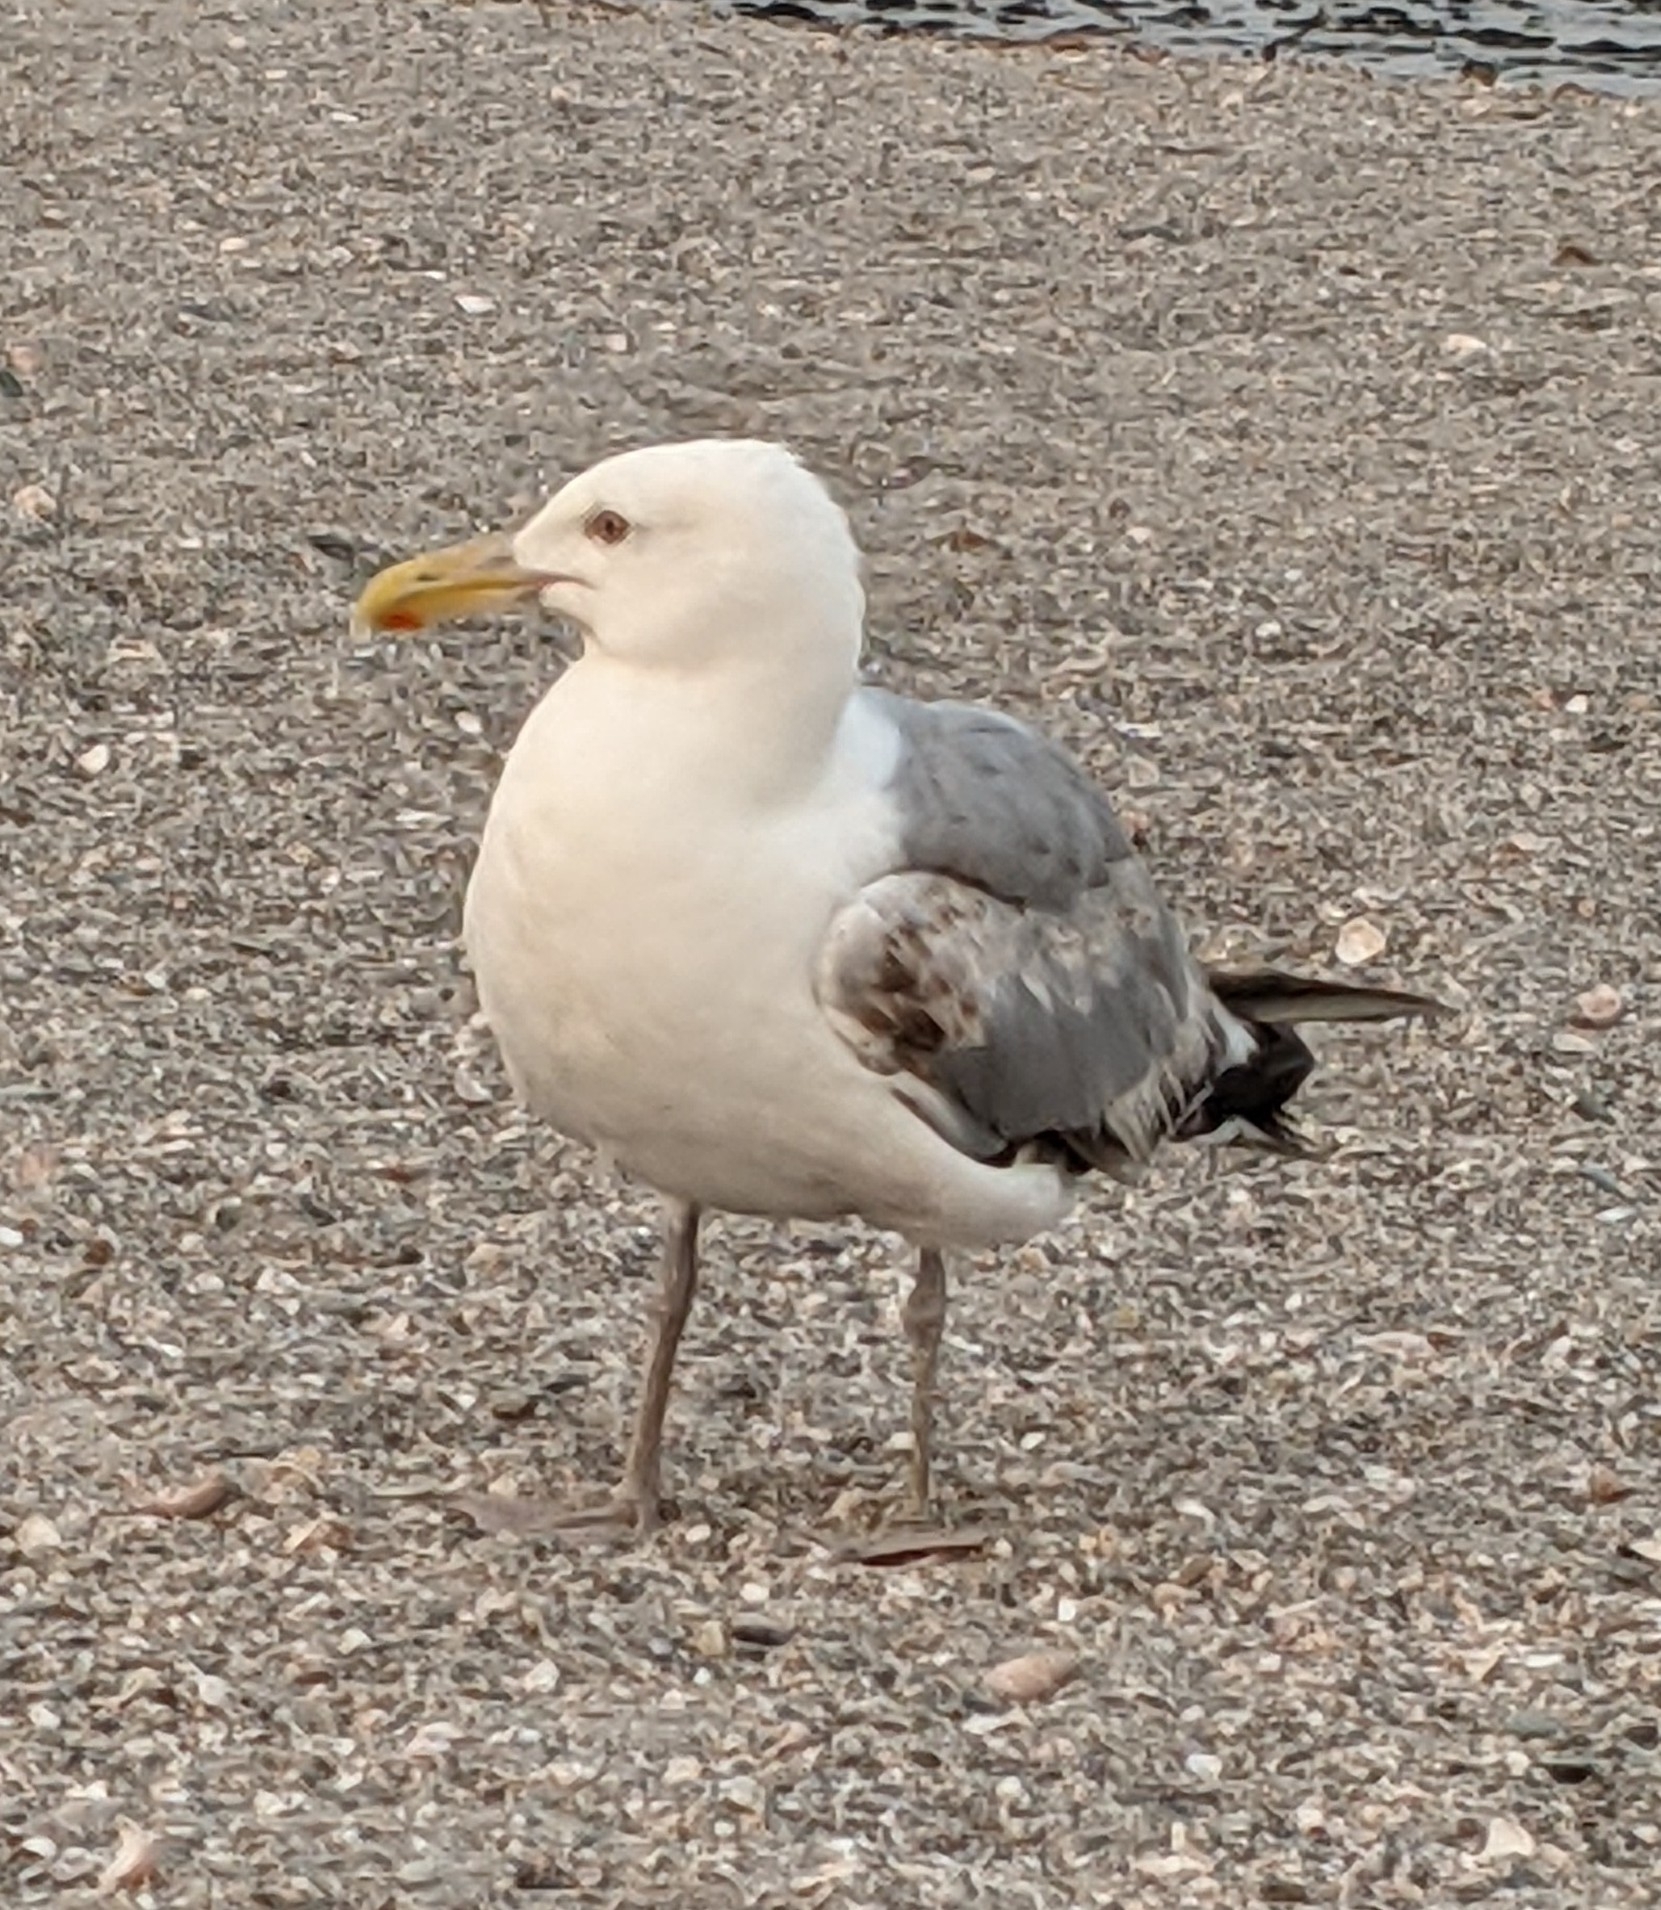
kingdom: Animalia
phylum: Chordata
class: Aves
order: Charadriiformes
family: Laridae
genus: Larus
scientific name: Larus argentatus
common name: Herring gull
